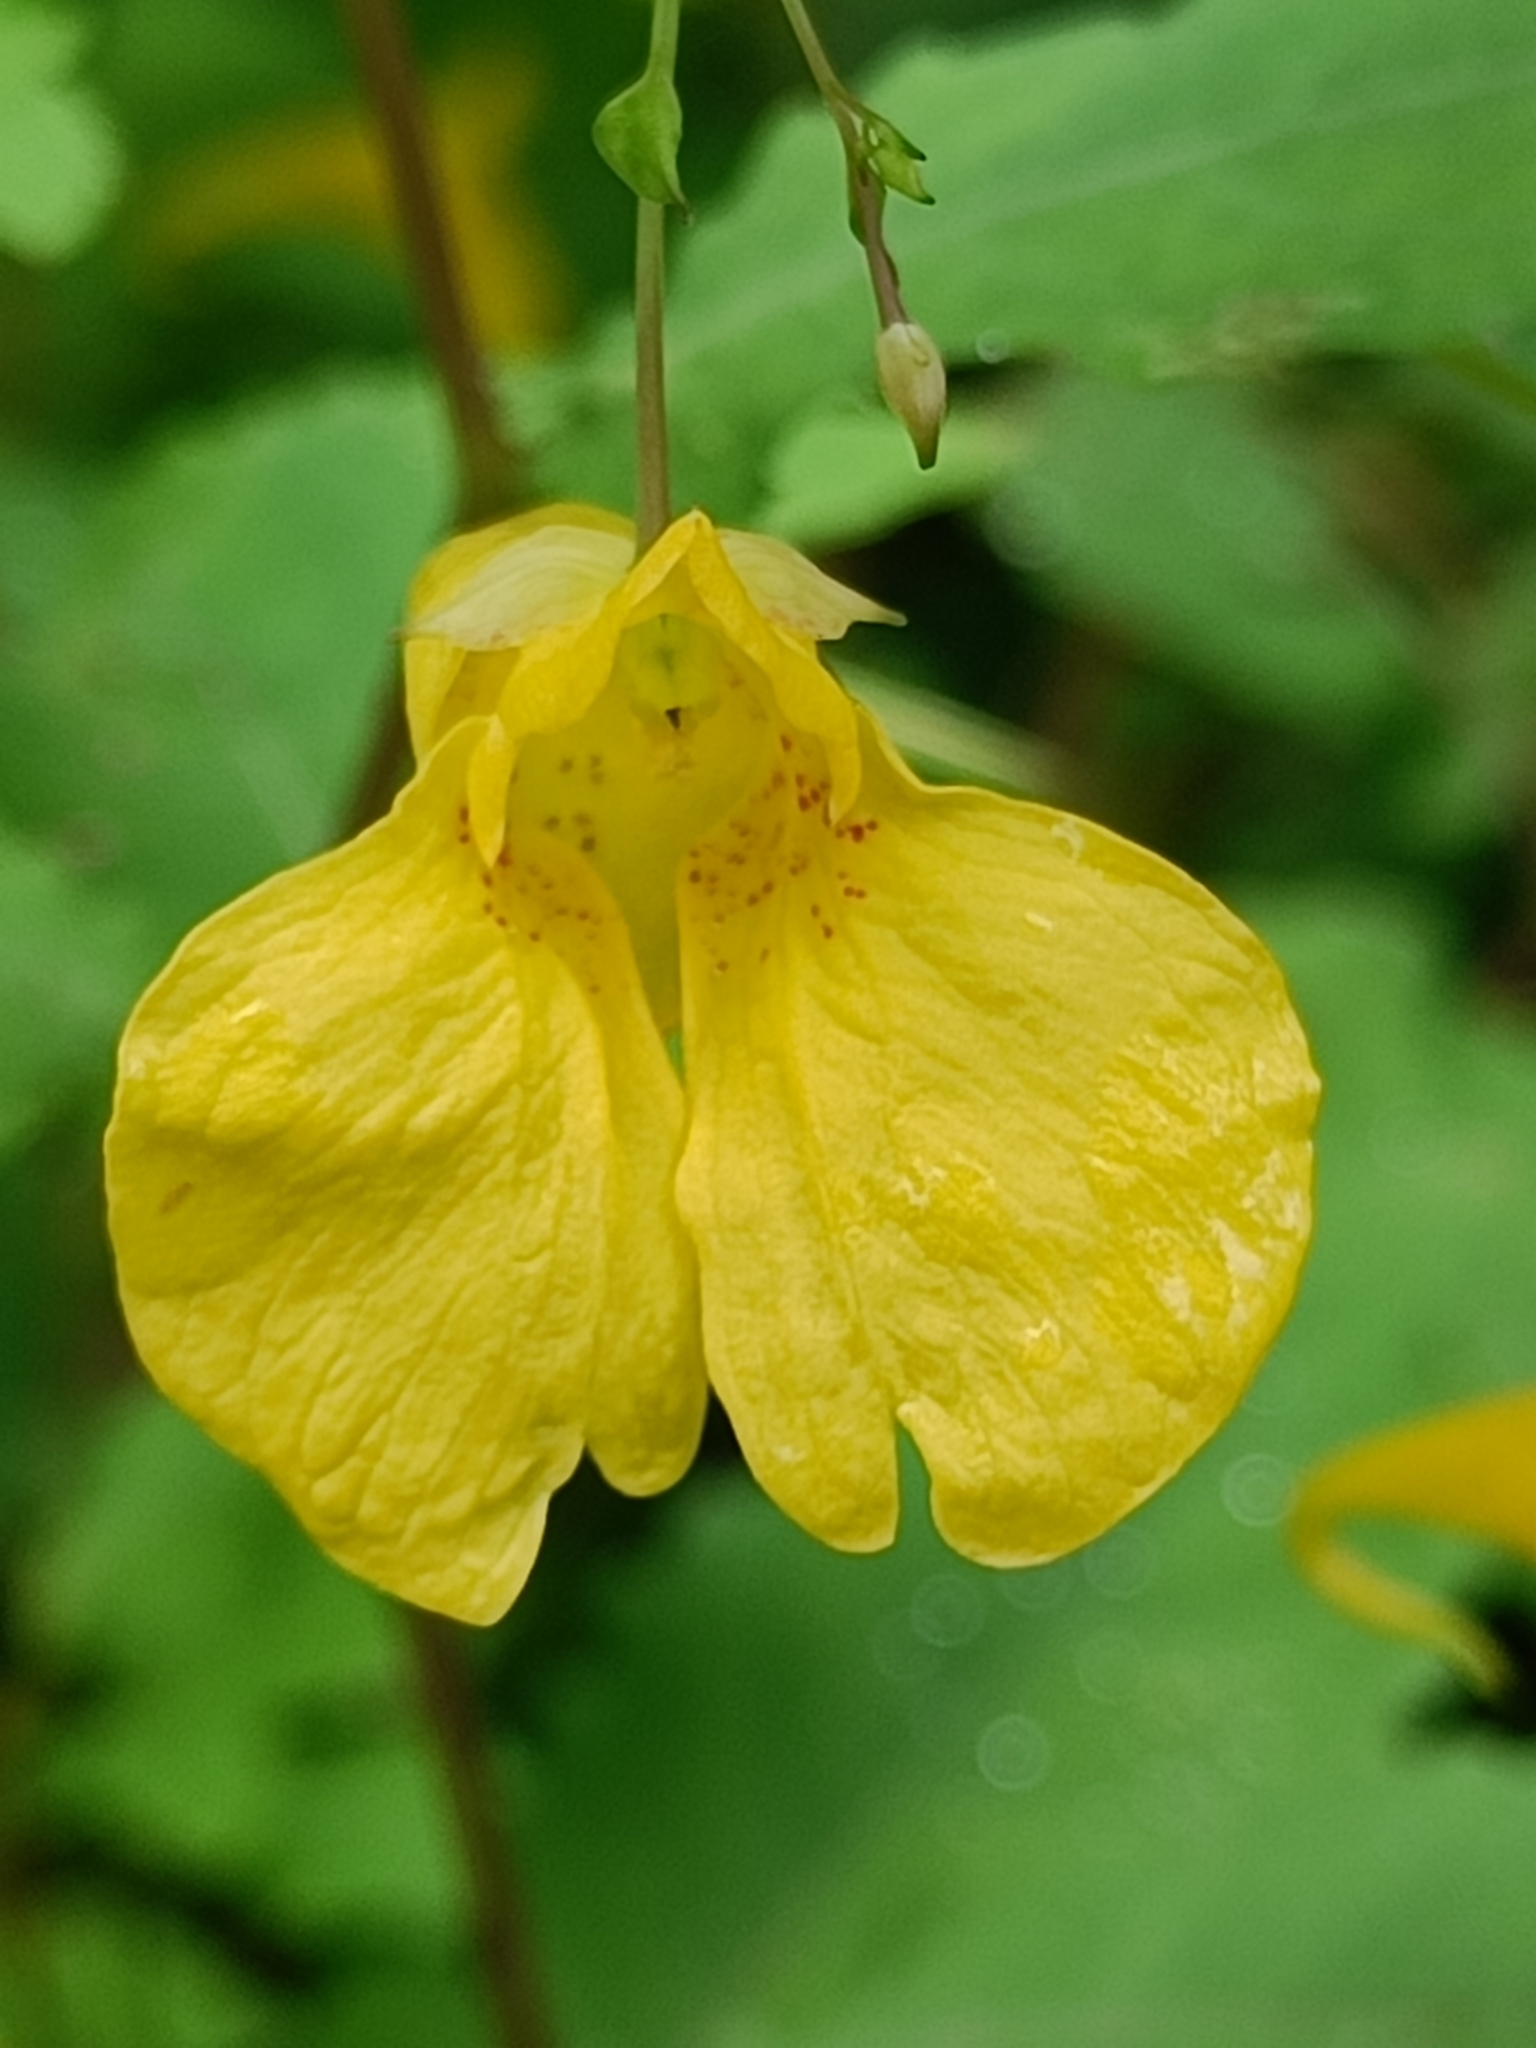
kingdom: Plantae
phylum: Tracheophyta
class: Magnoliopsida
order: Ericales
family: Balsaminaceae
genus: Impatiens
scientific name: Impatiens noli-tangere
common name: Touch-me-not balsam
